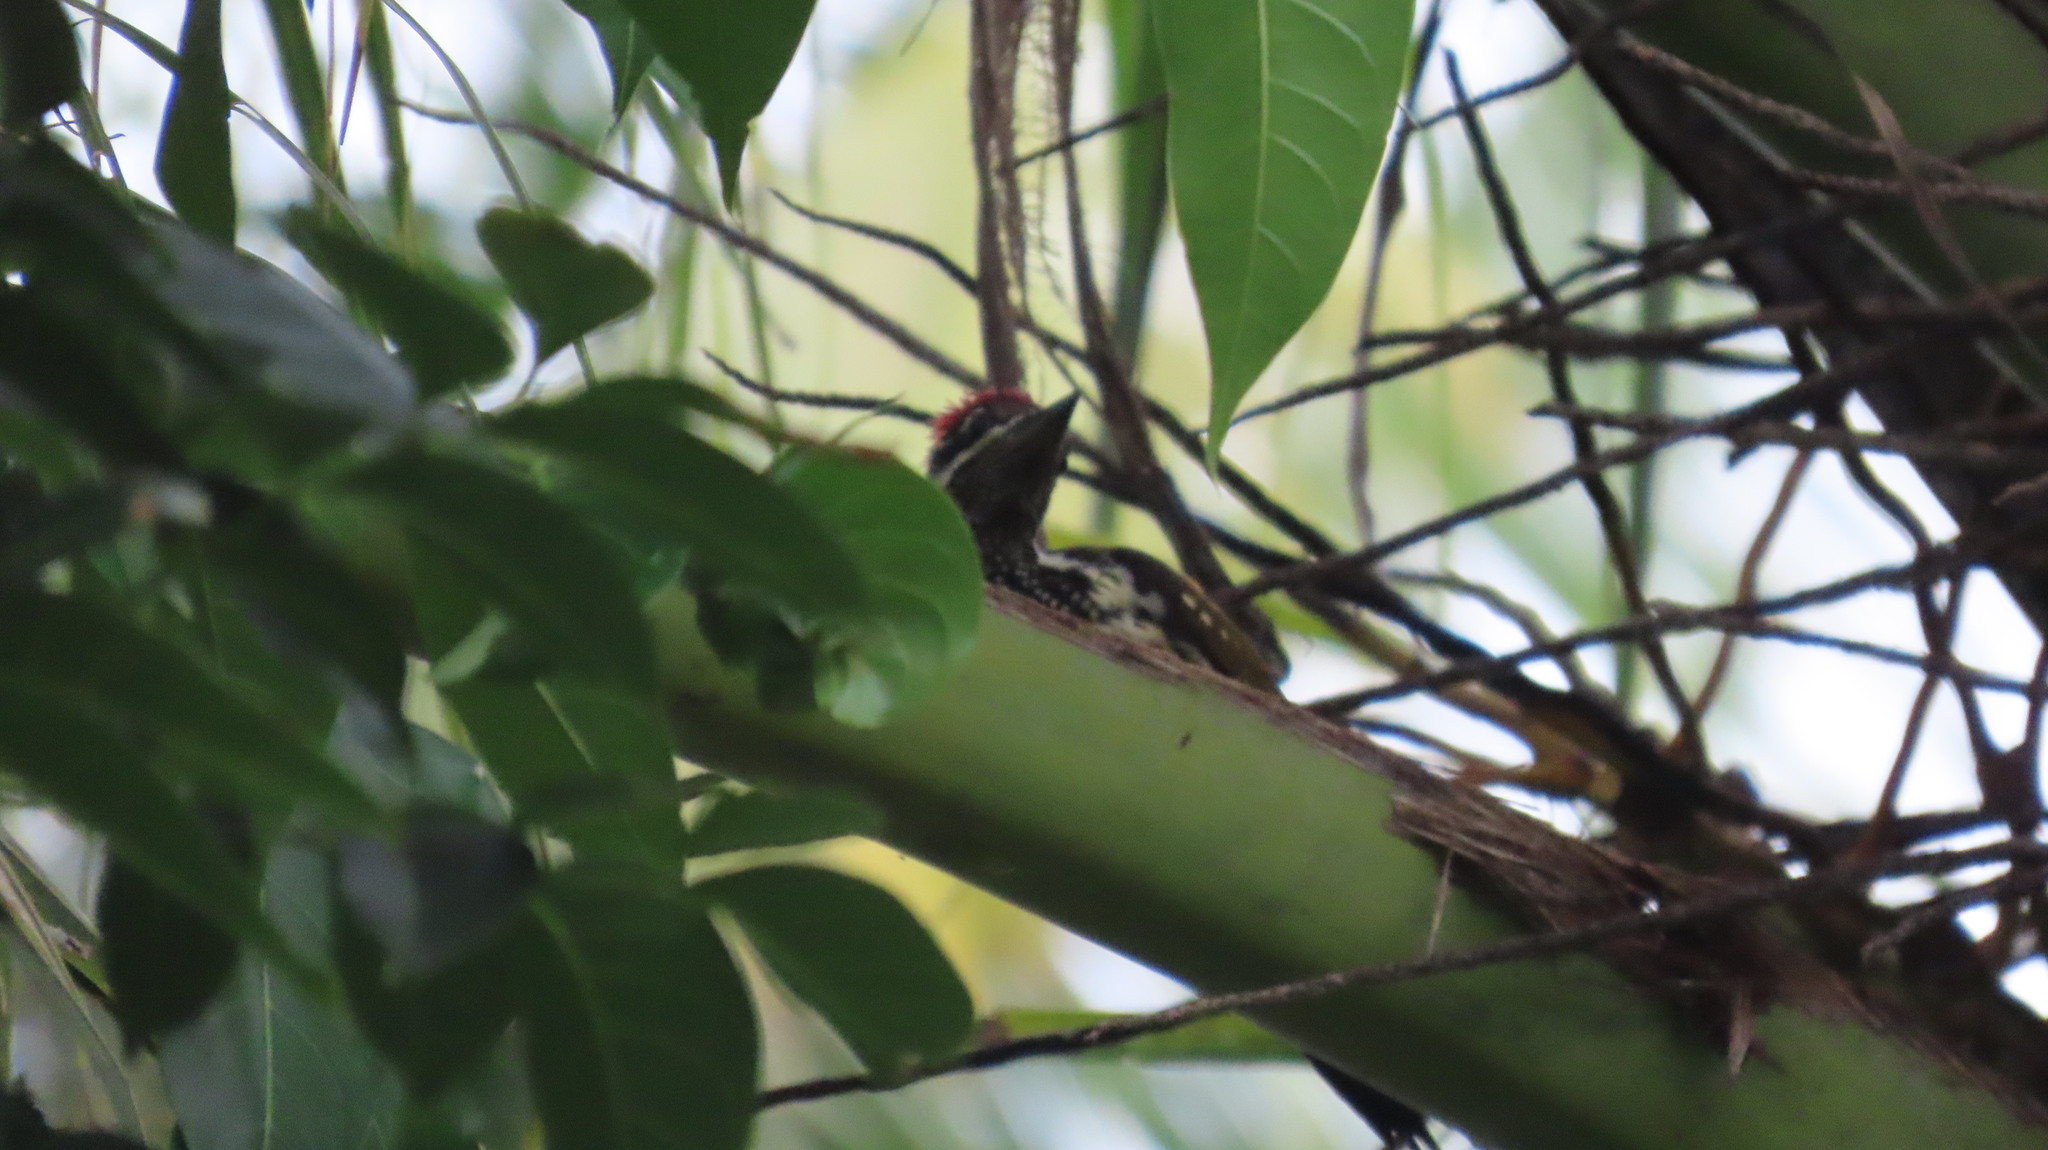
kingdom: Animalia
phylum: Chordata
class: Aves
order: Piciformes
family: Picidae
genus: Dinopium
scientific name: Dinopium benghalense
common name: Black-rumped flameback
